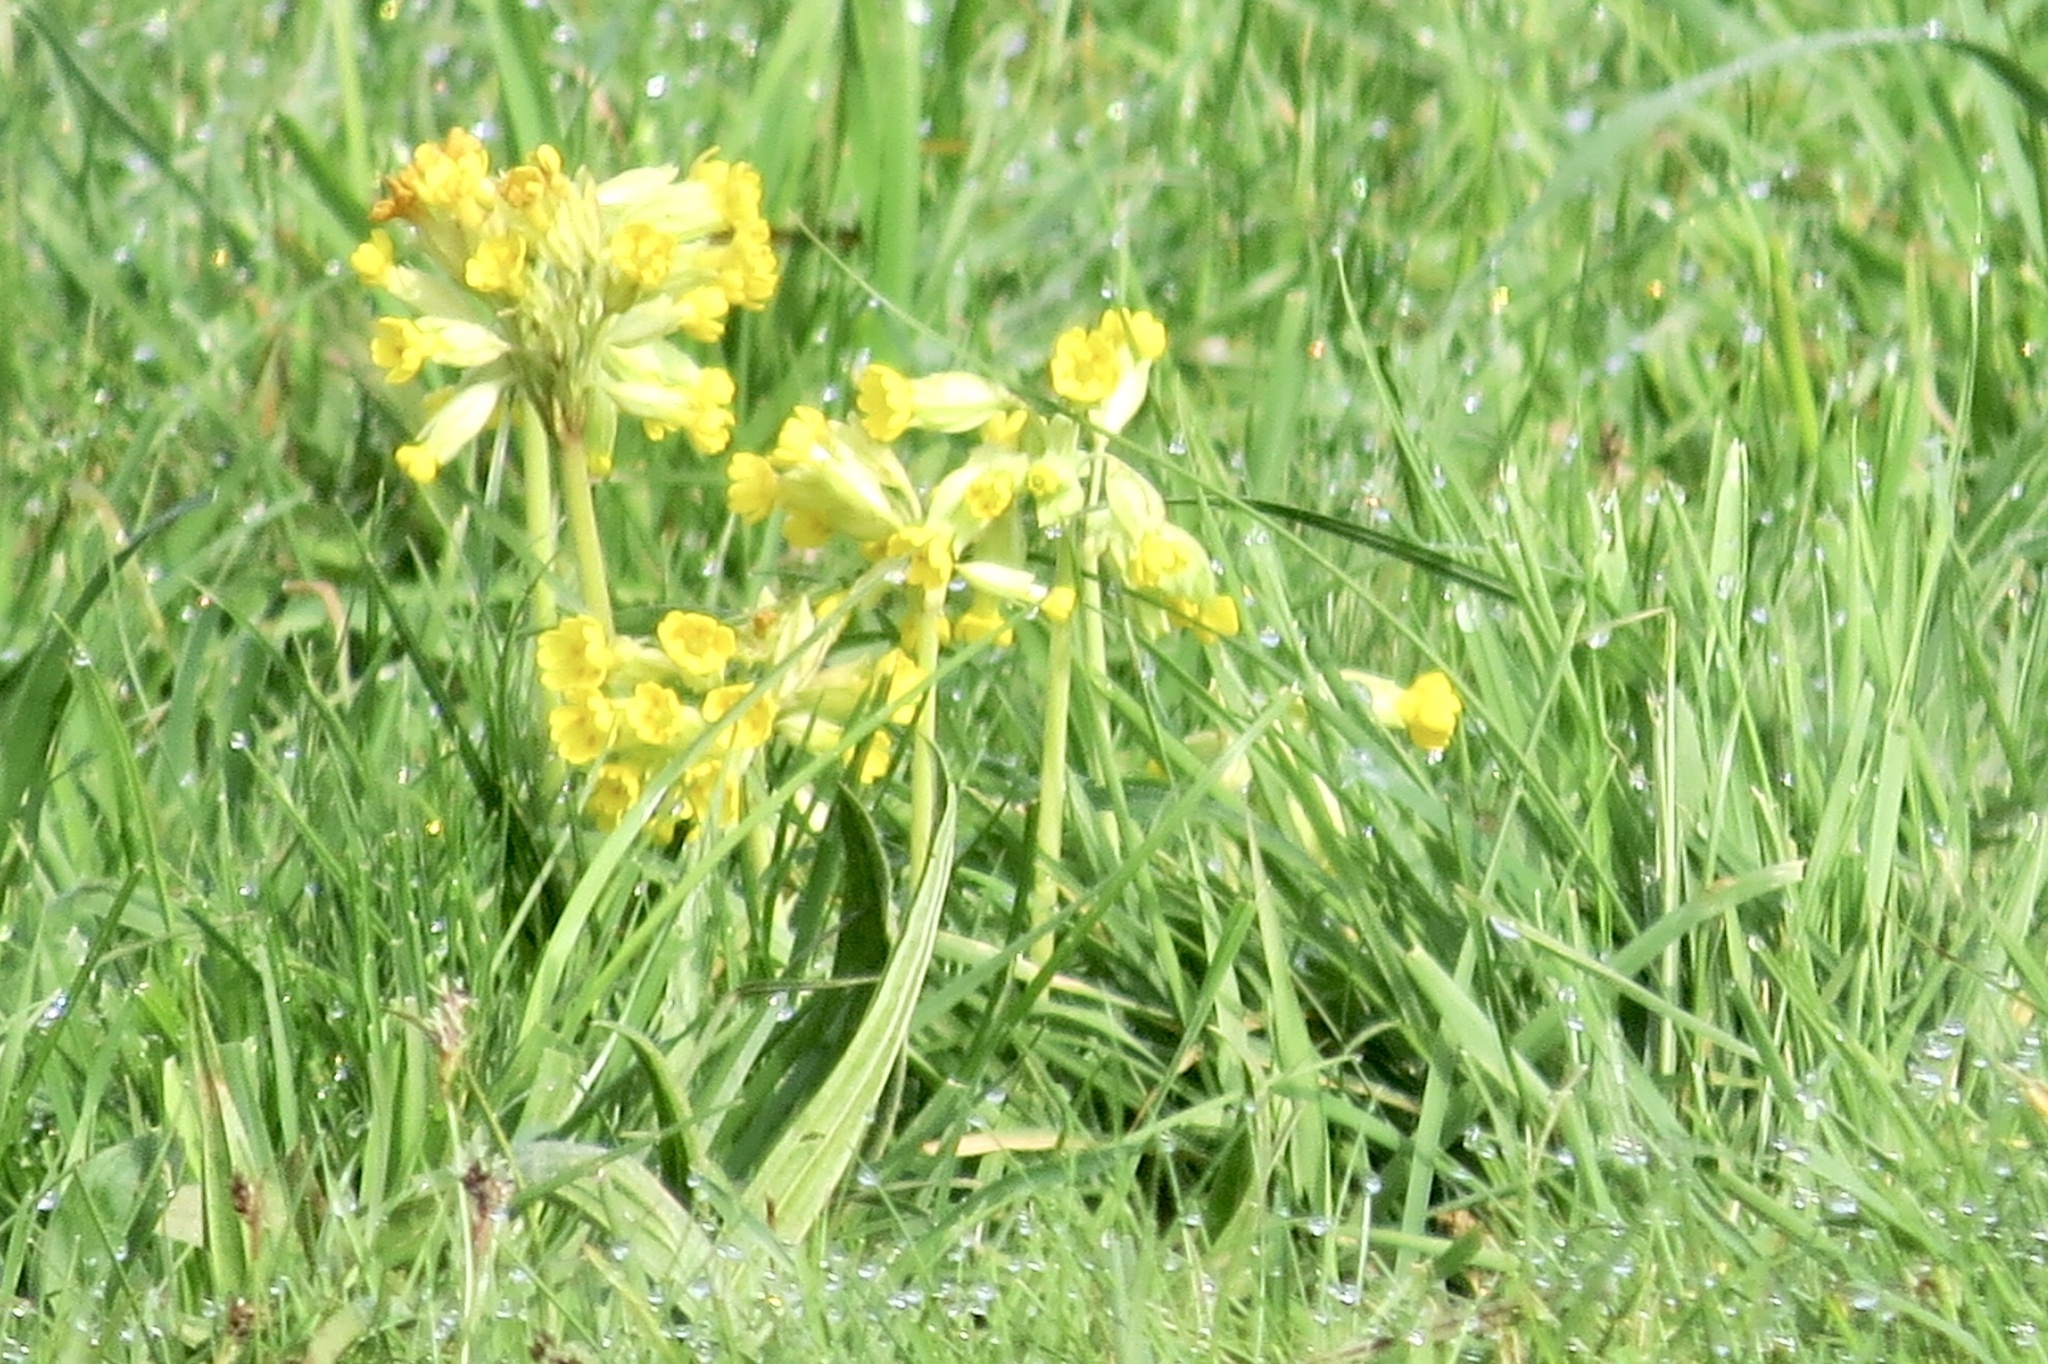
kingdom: Plantae
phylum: Tracheophyta
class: Magnoliopsida
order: Ericales
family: Primulaceae
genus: Primula
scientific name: Primula veris
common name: Cowslip
